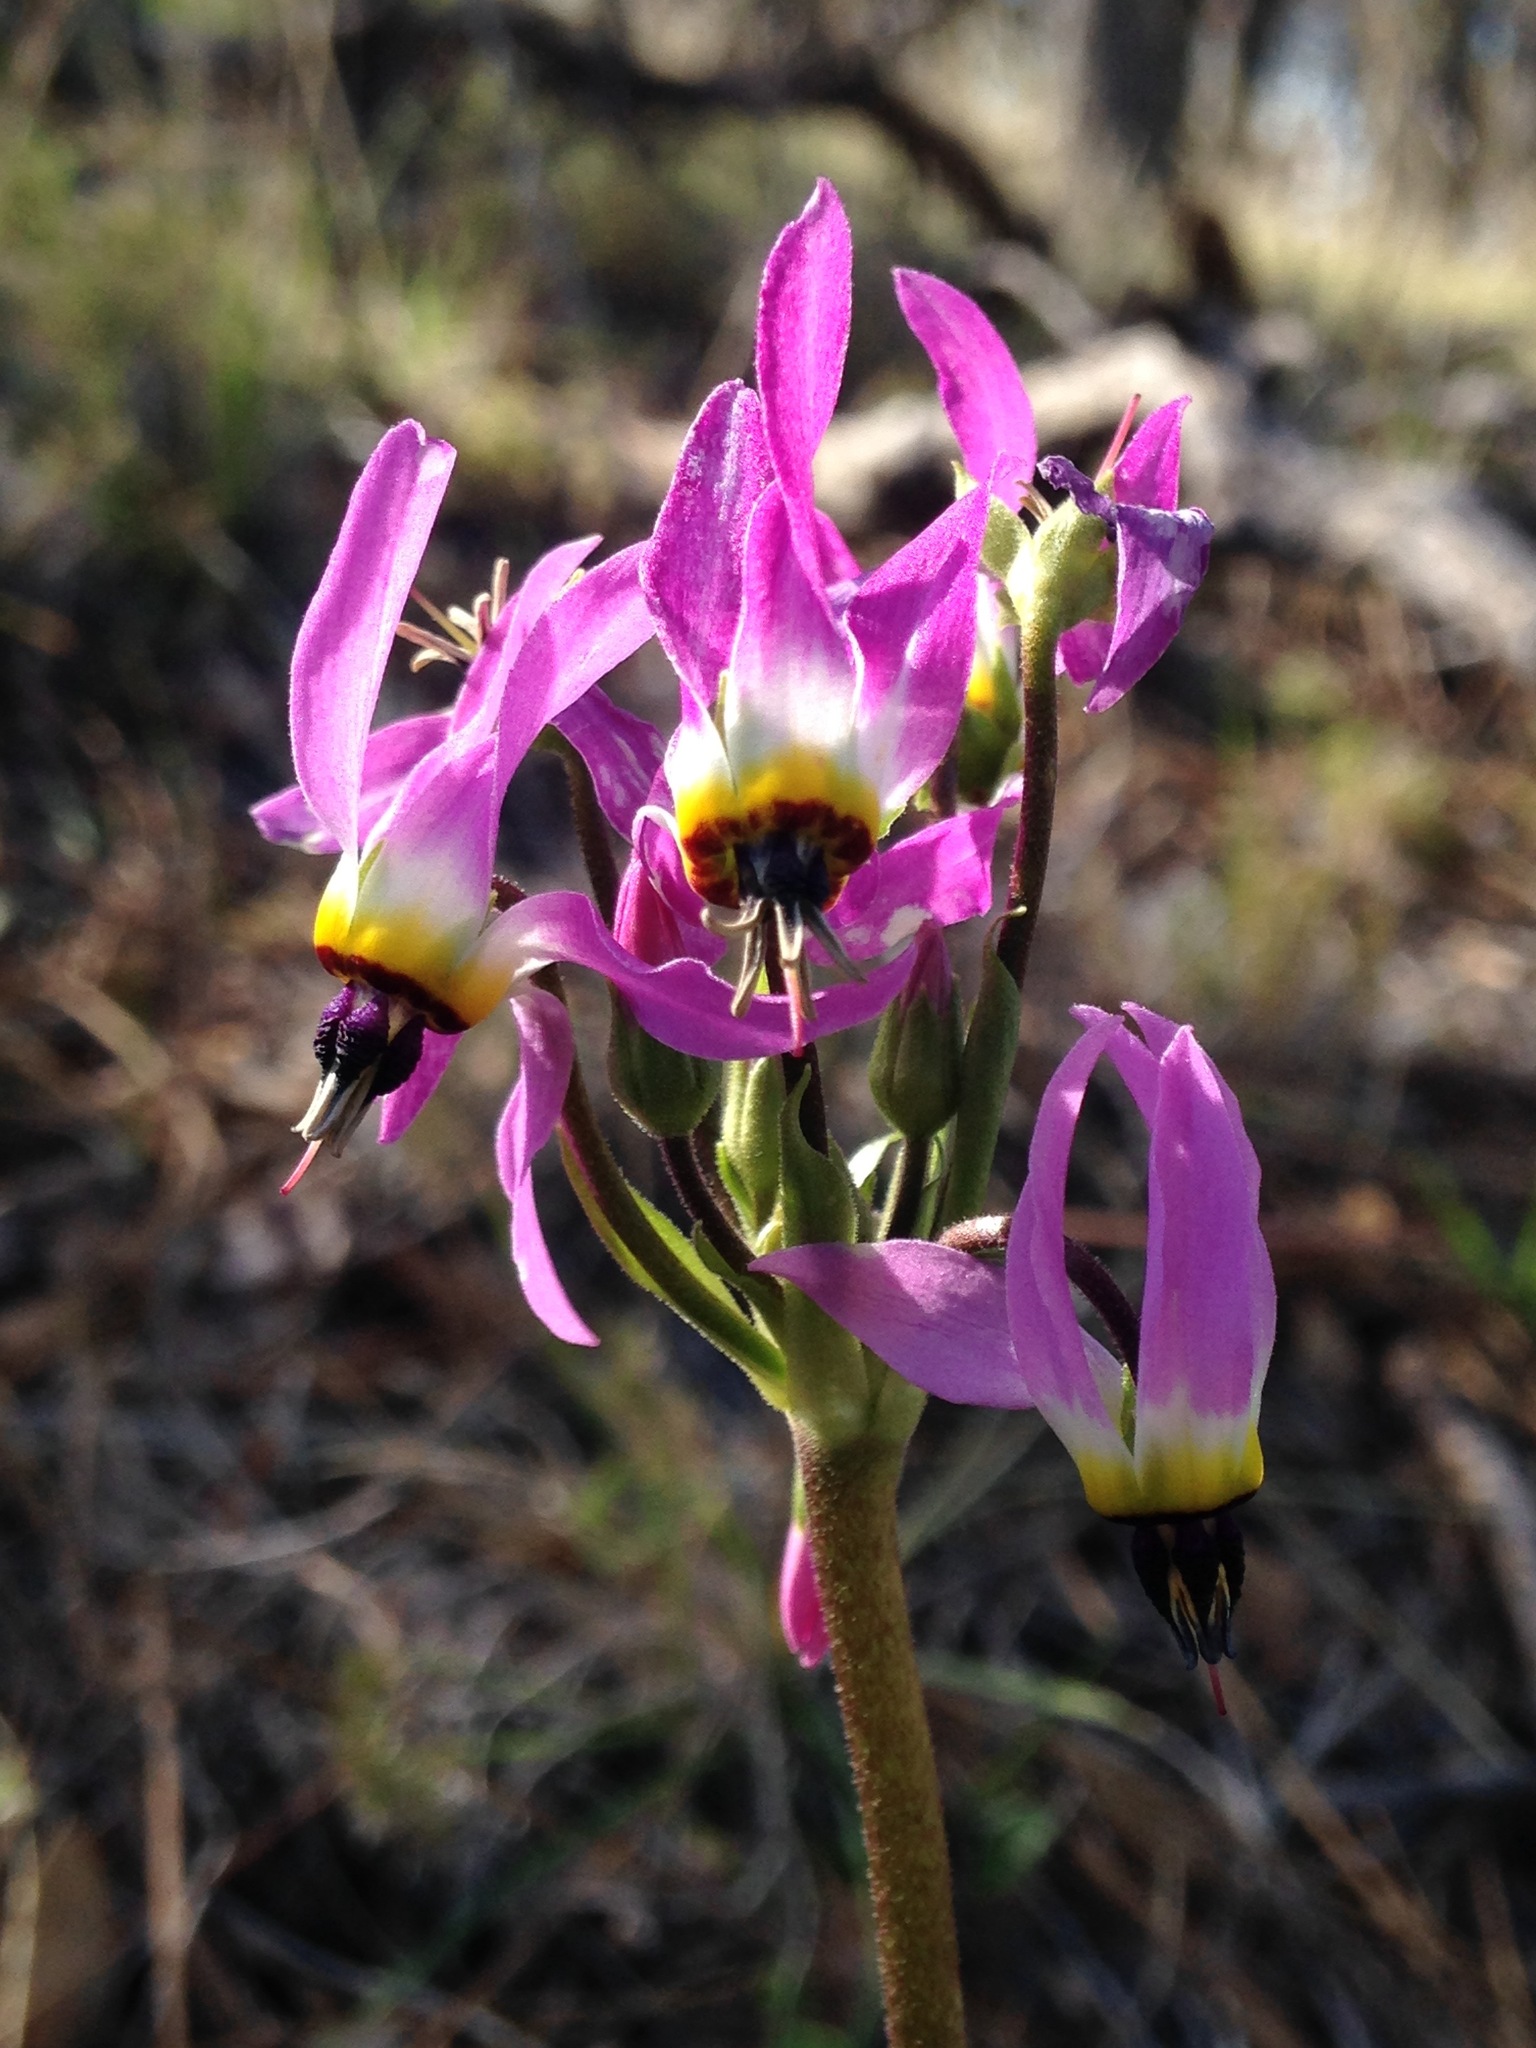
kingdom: Plantae
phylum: Tracheophyta
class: Magnoliopsida
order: Ericales
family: Primulaceae
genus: Dodecatheon
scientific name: Dodecatheon clevelandii
